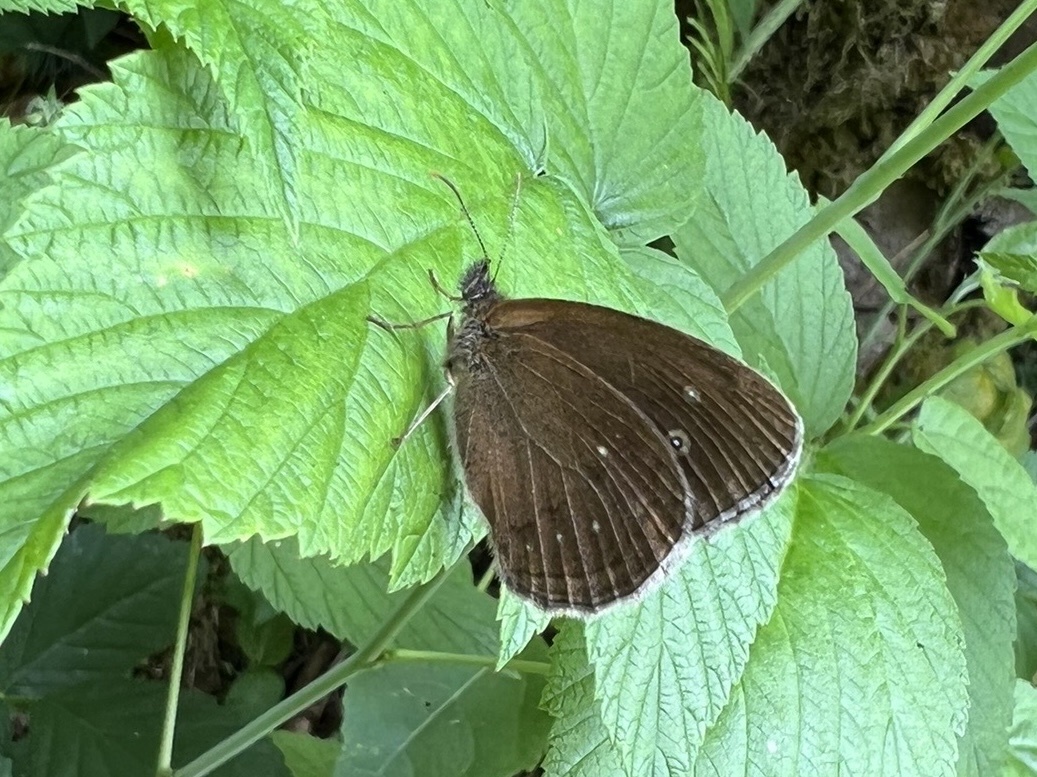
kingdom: Animalia
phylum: Arthropoda
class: Insecta
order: Lepidoptera
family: Nymphalidae
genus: Aphantopus
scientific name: Aphantopus hyperantus
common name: Ringlet
